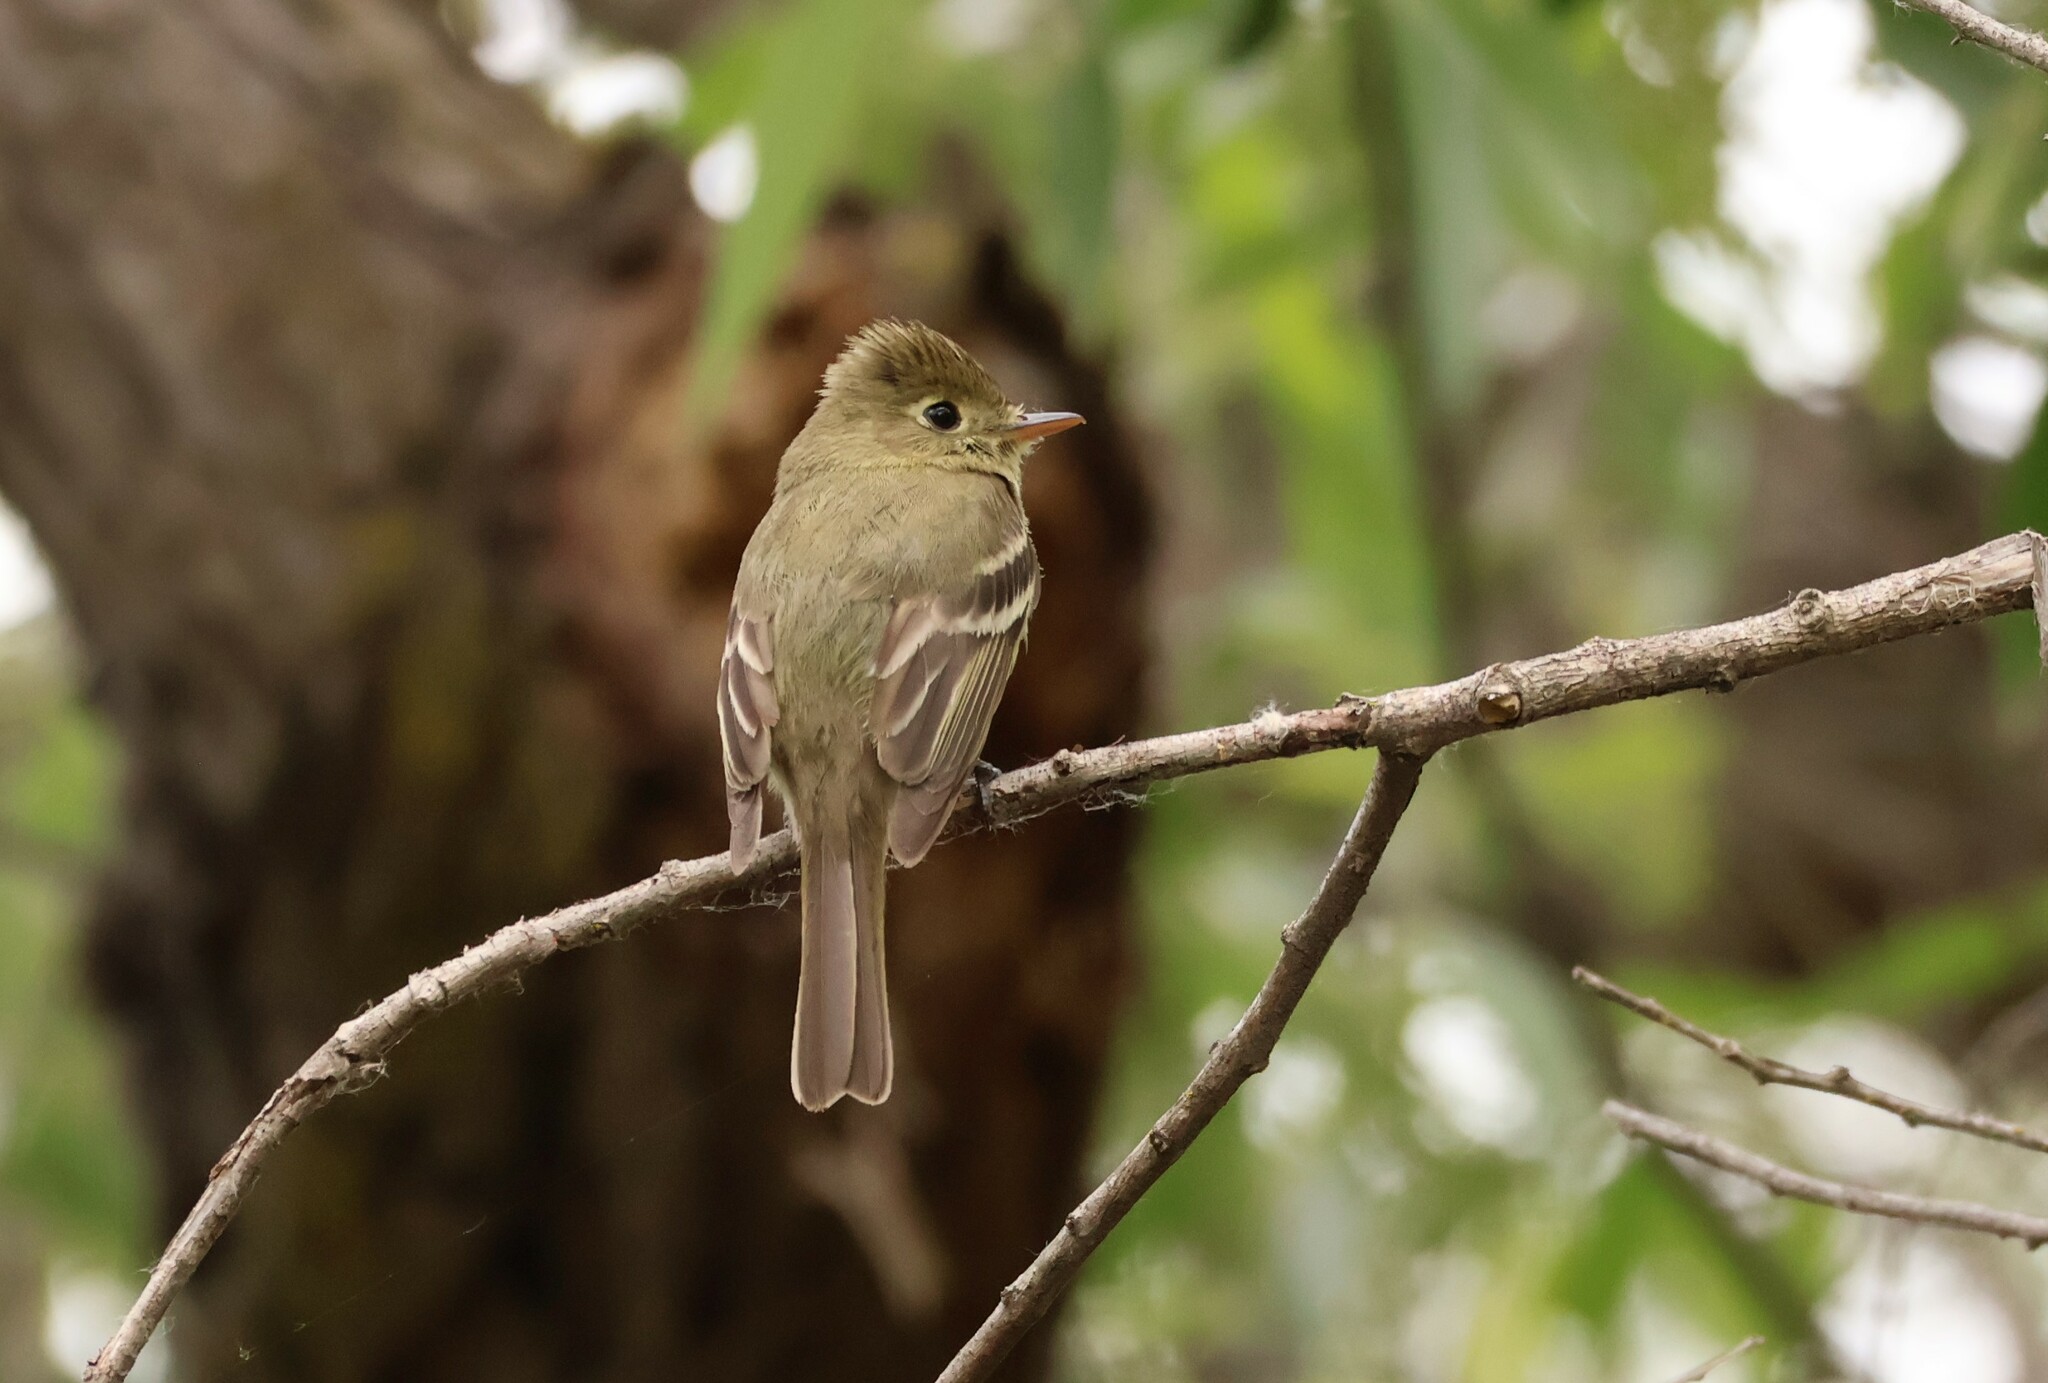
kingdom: Animalia
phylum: Chordata
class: Aves
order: Passeriformes
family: Tyrannidae
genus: Empidonax
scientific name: Empidonax difficilis
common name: Pacific-slope flycatcher
